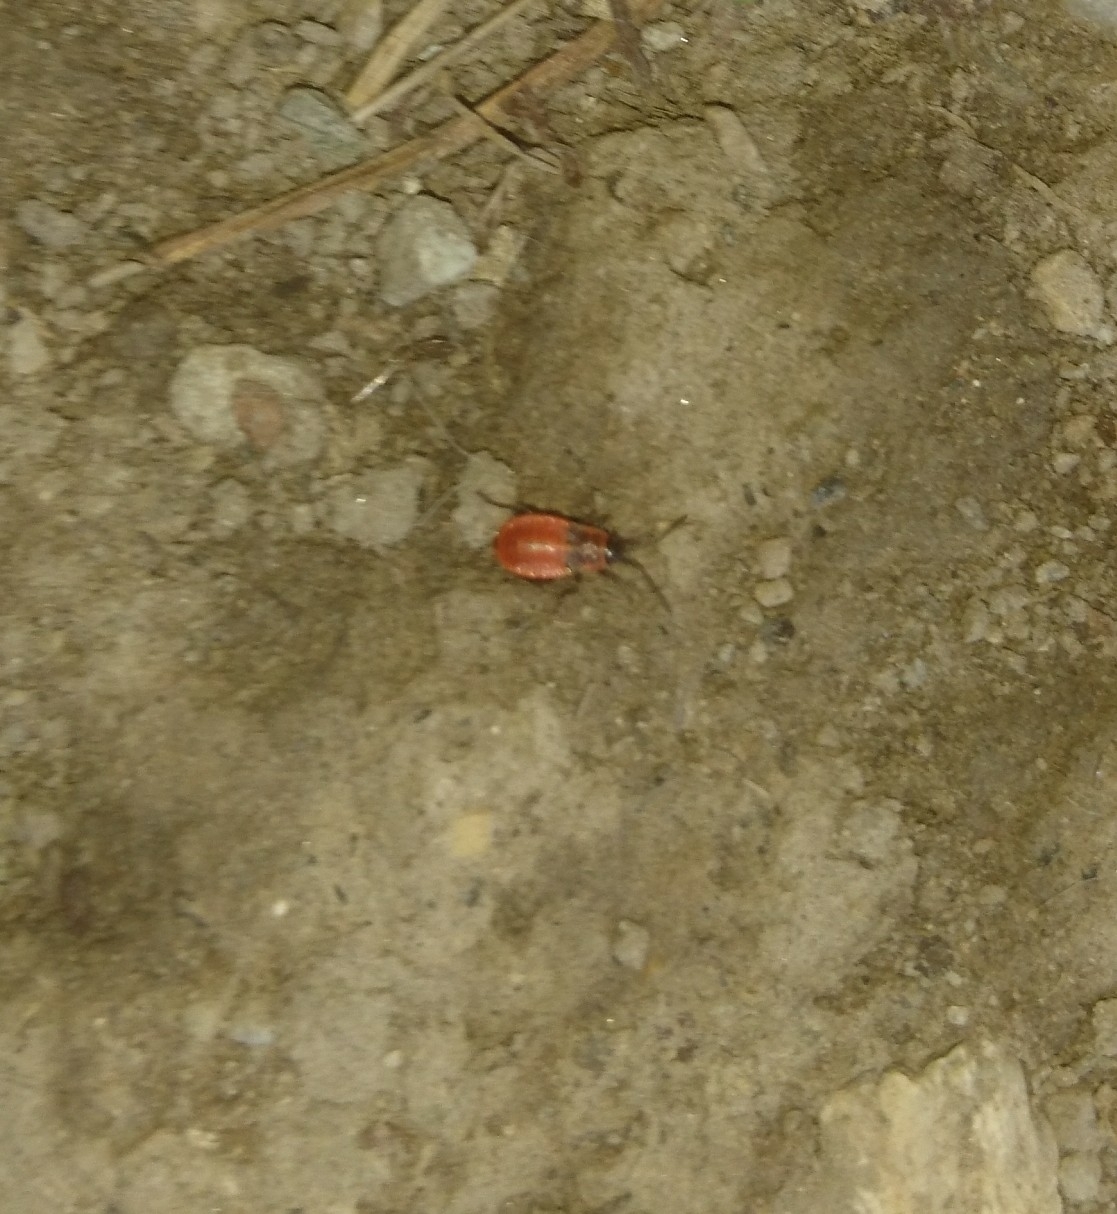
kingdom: Animalia
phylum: Arthropoda
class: Insecta
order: Hemiptera
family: Pyrrhocoridae
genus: Pyrrhocoris
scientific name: Pyrrhocoris apterus
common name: Firebug
